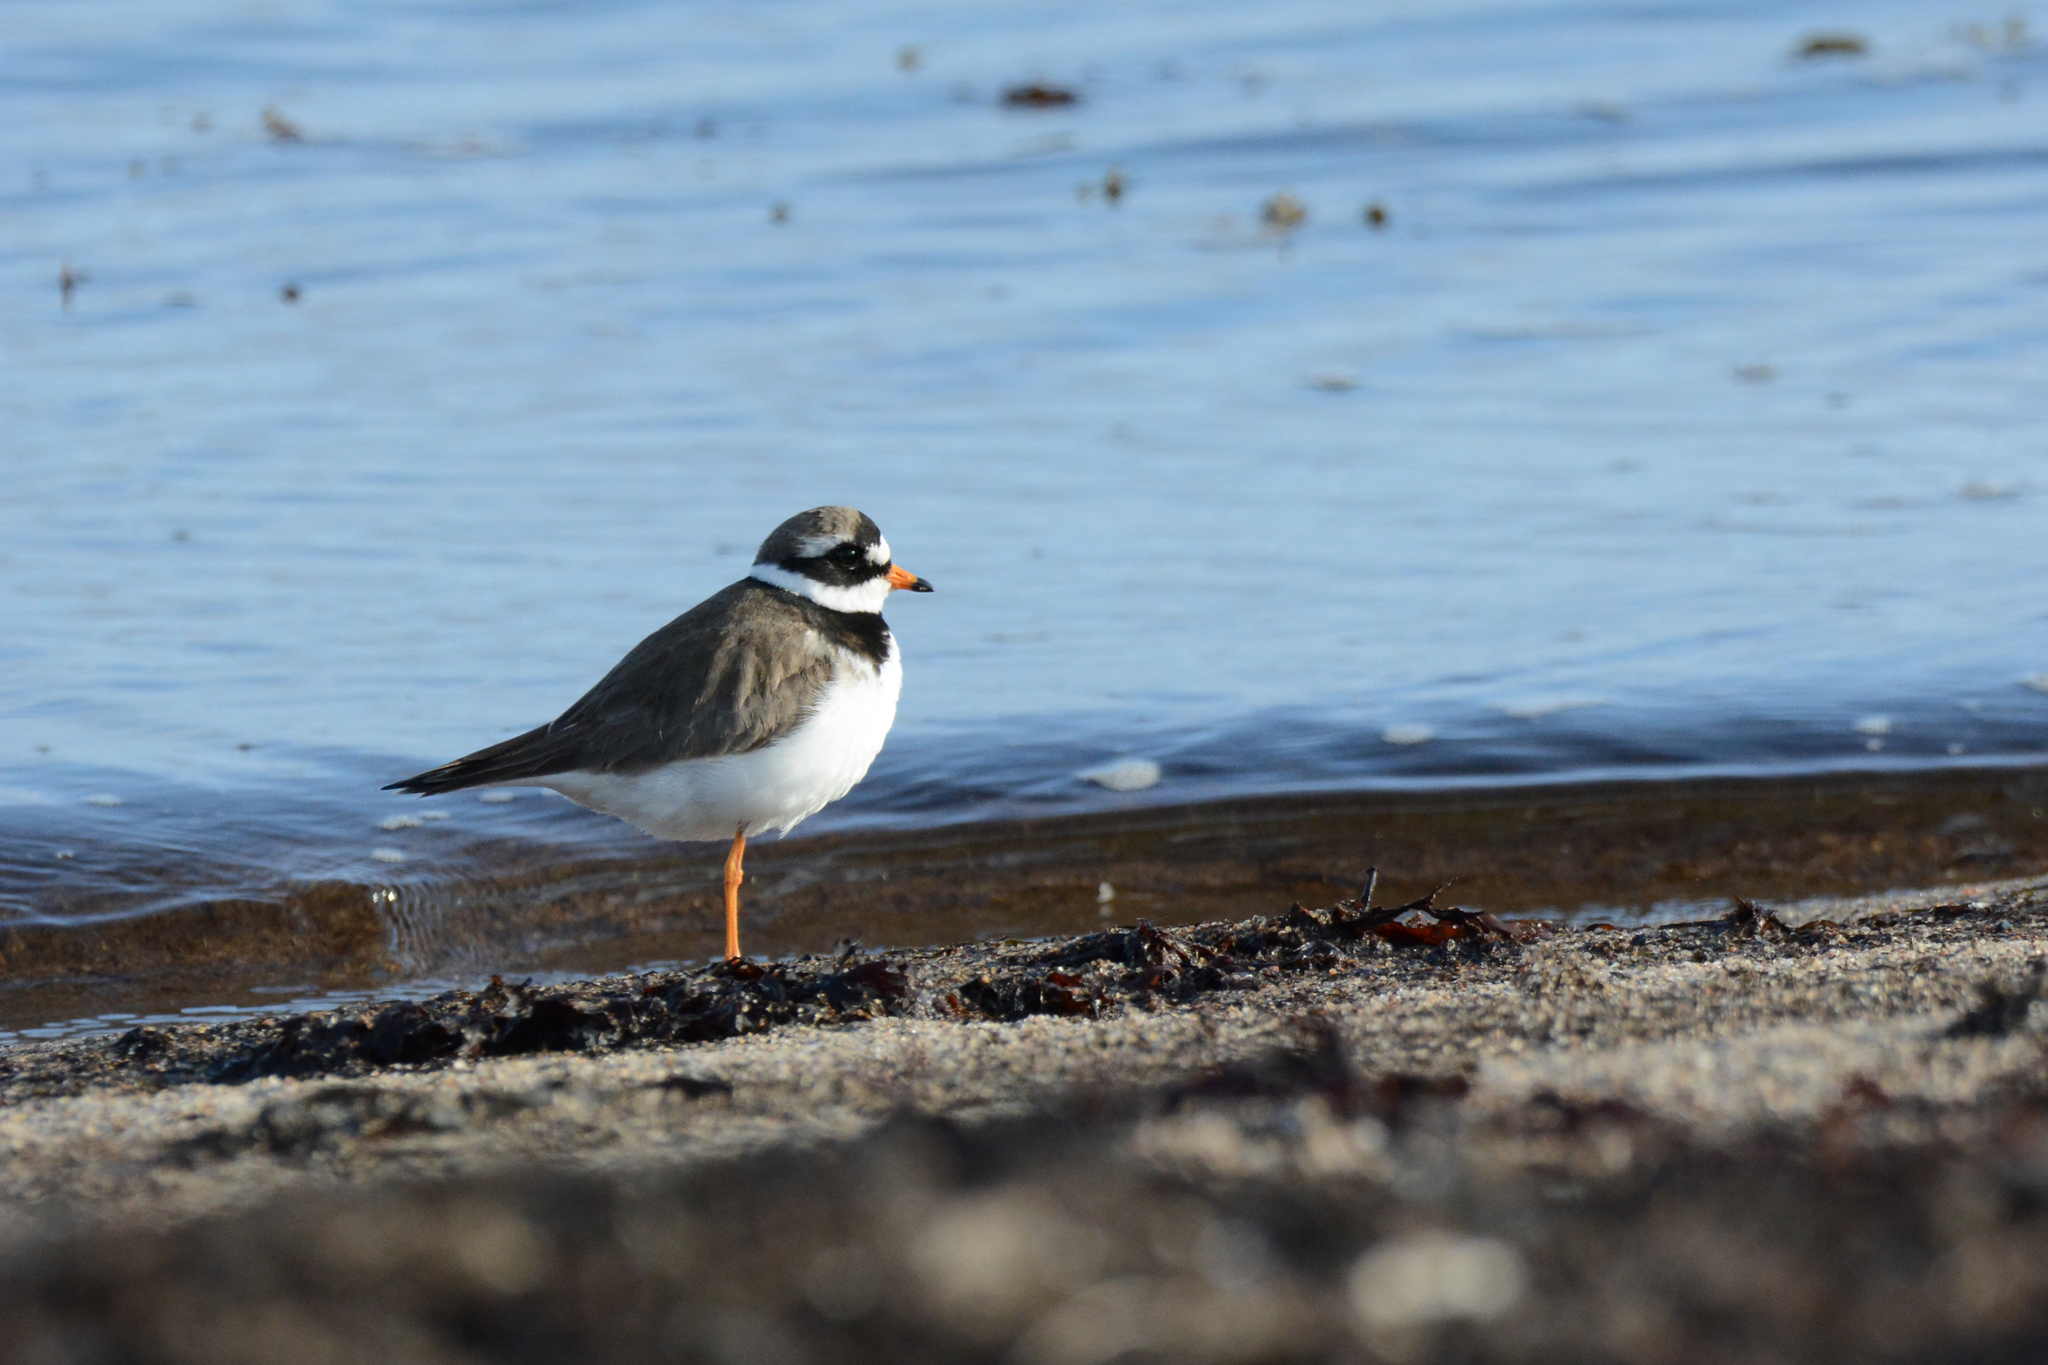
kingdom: Animalia
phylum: Chordata
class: Aves
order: Charadriiformes
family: Charadriidae
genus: Charadrius
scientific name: Charadrius hiaticula
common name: Common ringed plover
